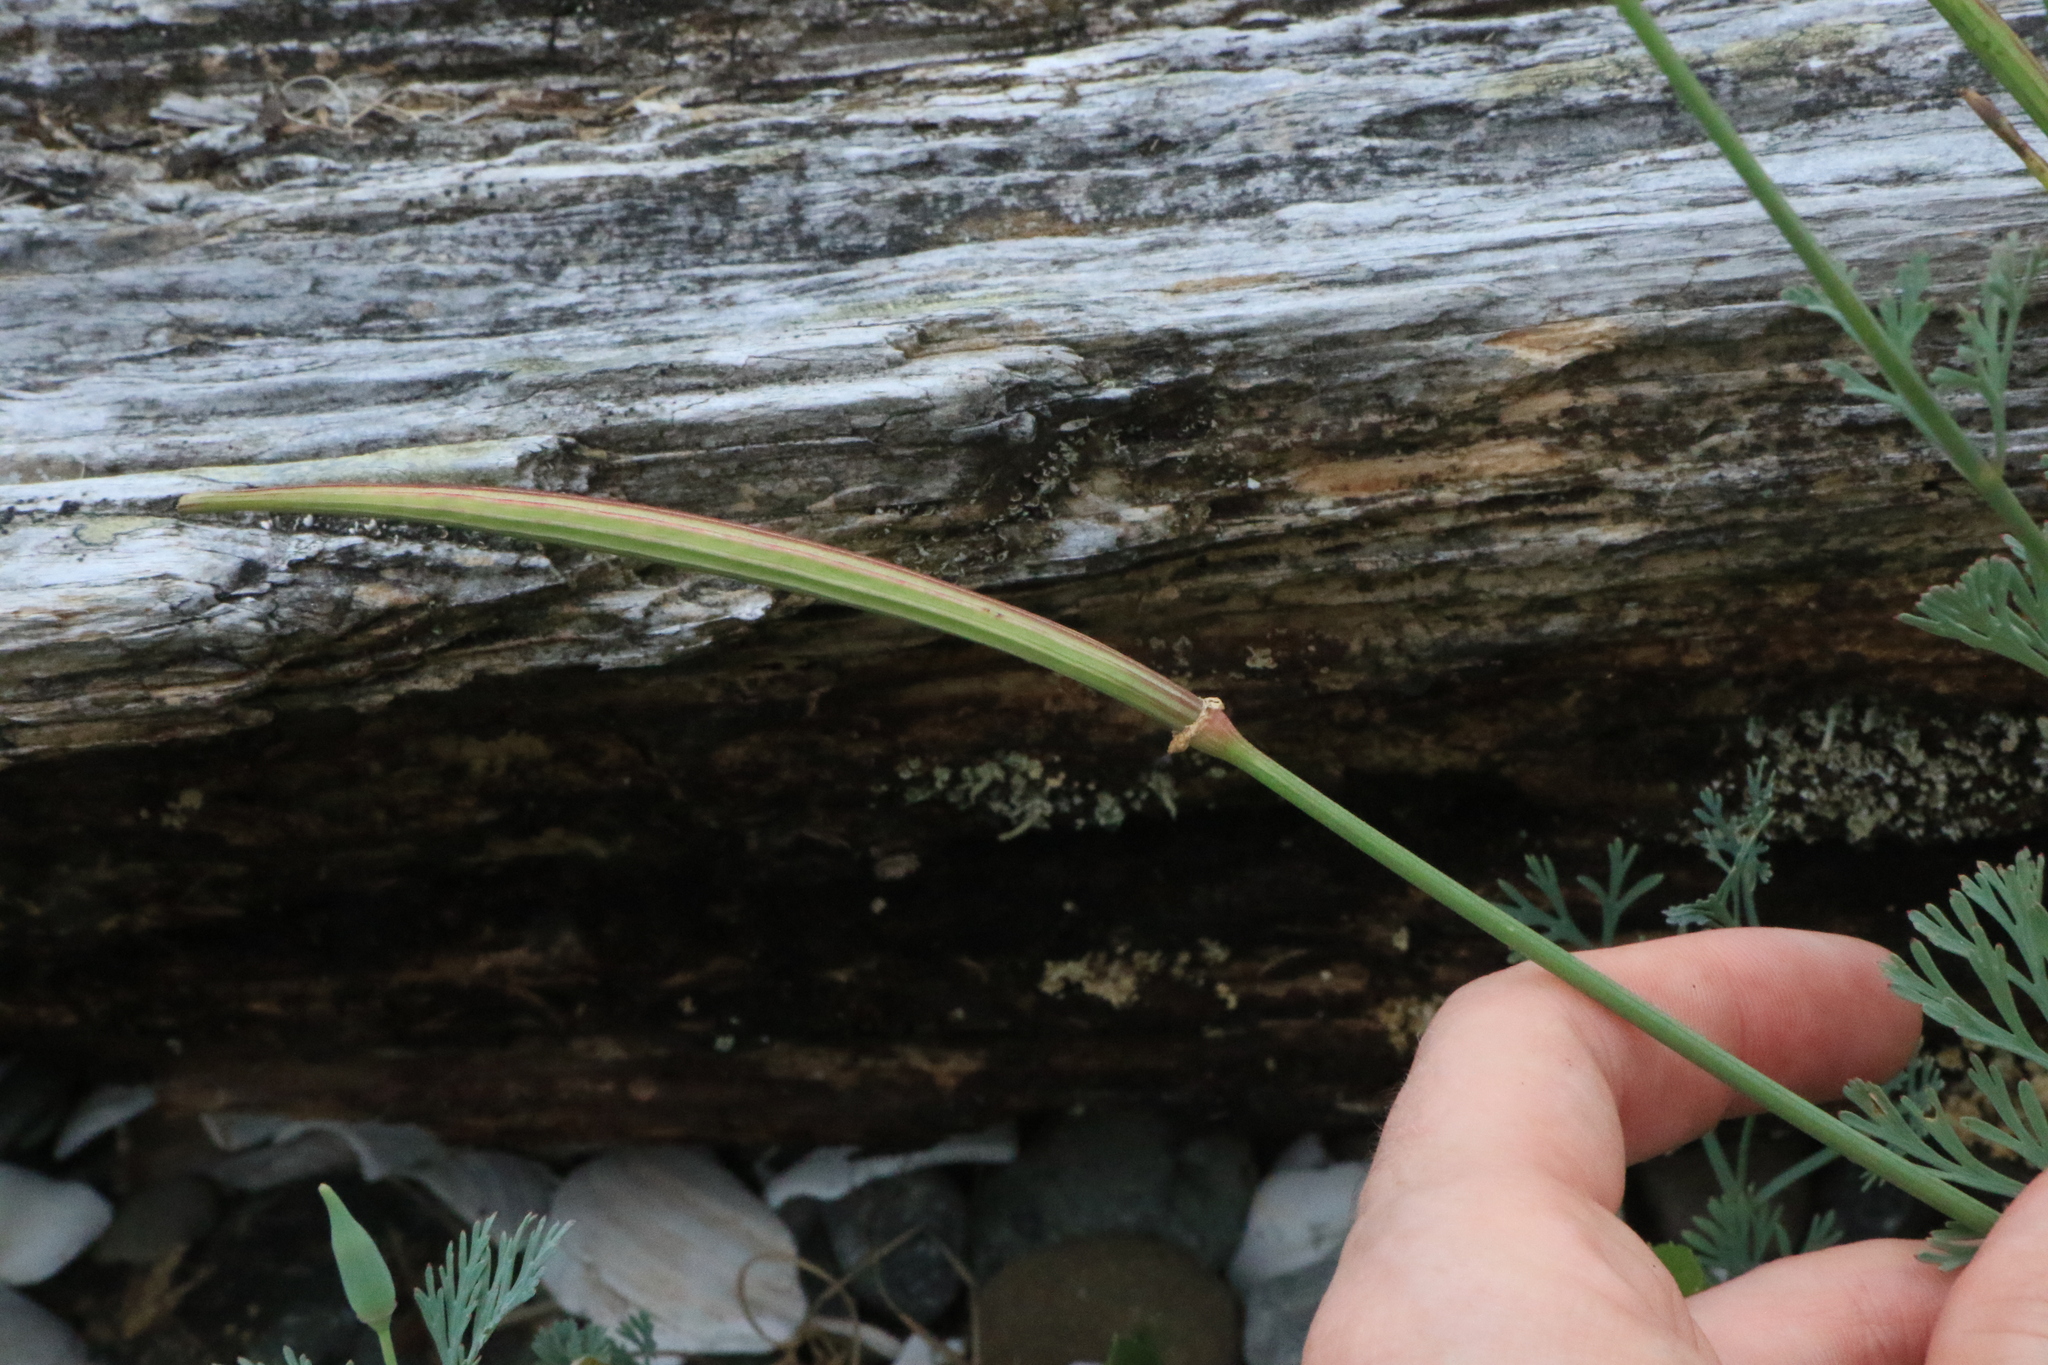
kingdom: Plantae
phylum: Tracheophyta
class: Magnoliopsida
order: Ranunculales
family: Papaveraceae
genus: Eschscholzia
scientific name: Eschscholzia californica
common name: California poppy
